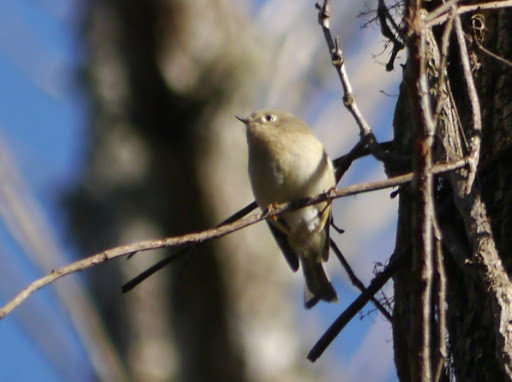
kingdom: Animalia
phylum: Chordata
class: Aves
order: Passeriformes
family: Regulidae
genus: Regulus
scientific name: Regulus calendula
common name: Ruby-crowned kinglet
